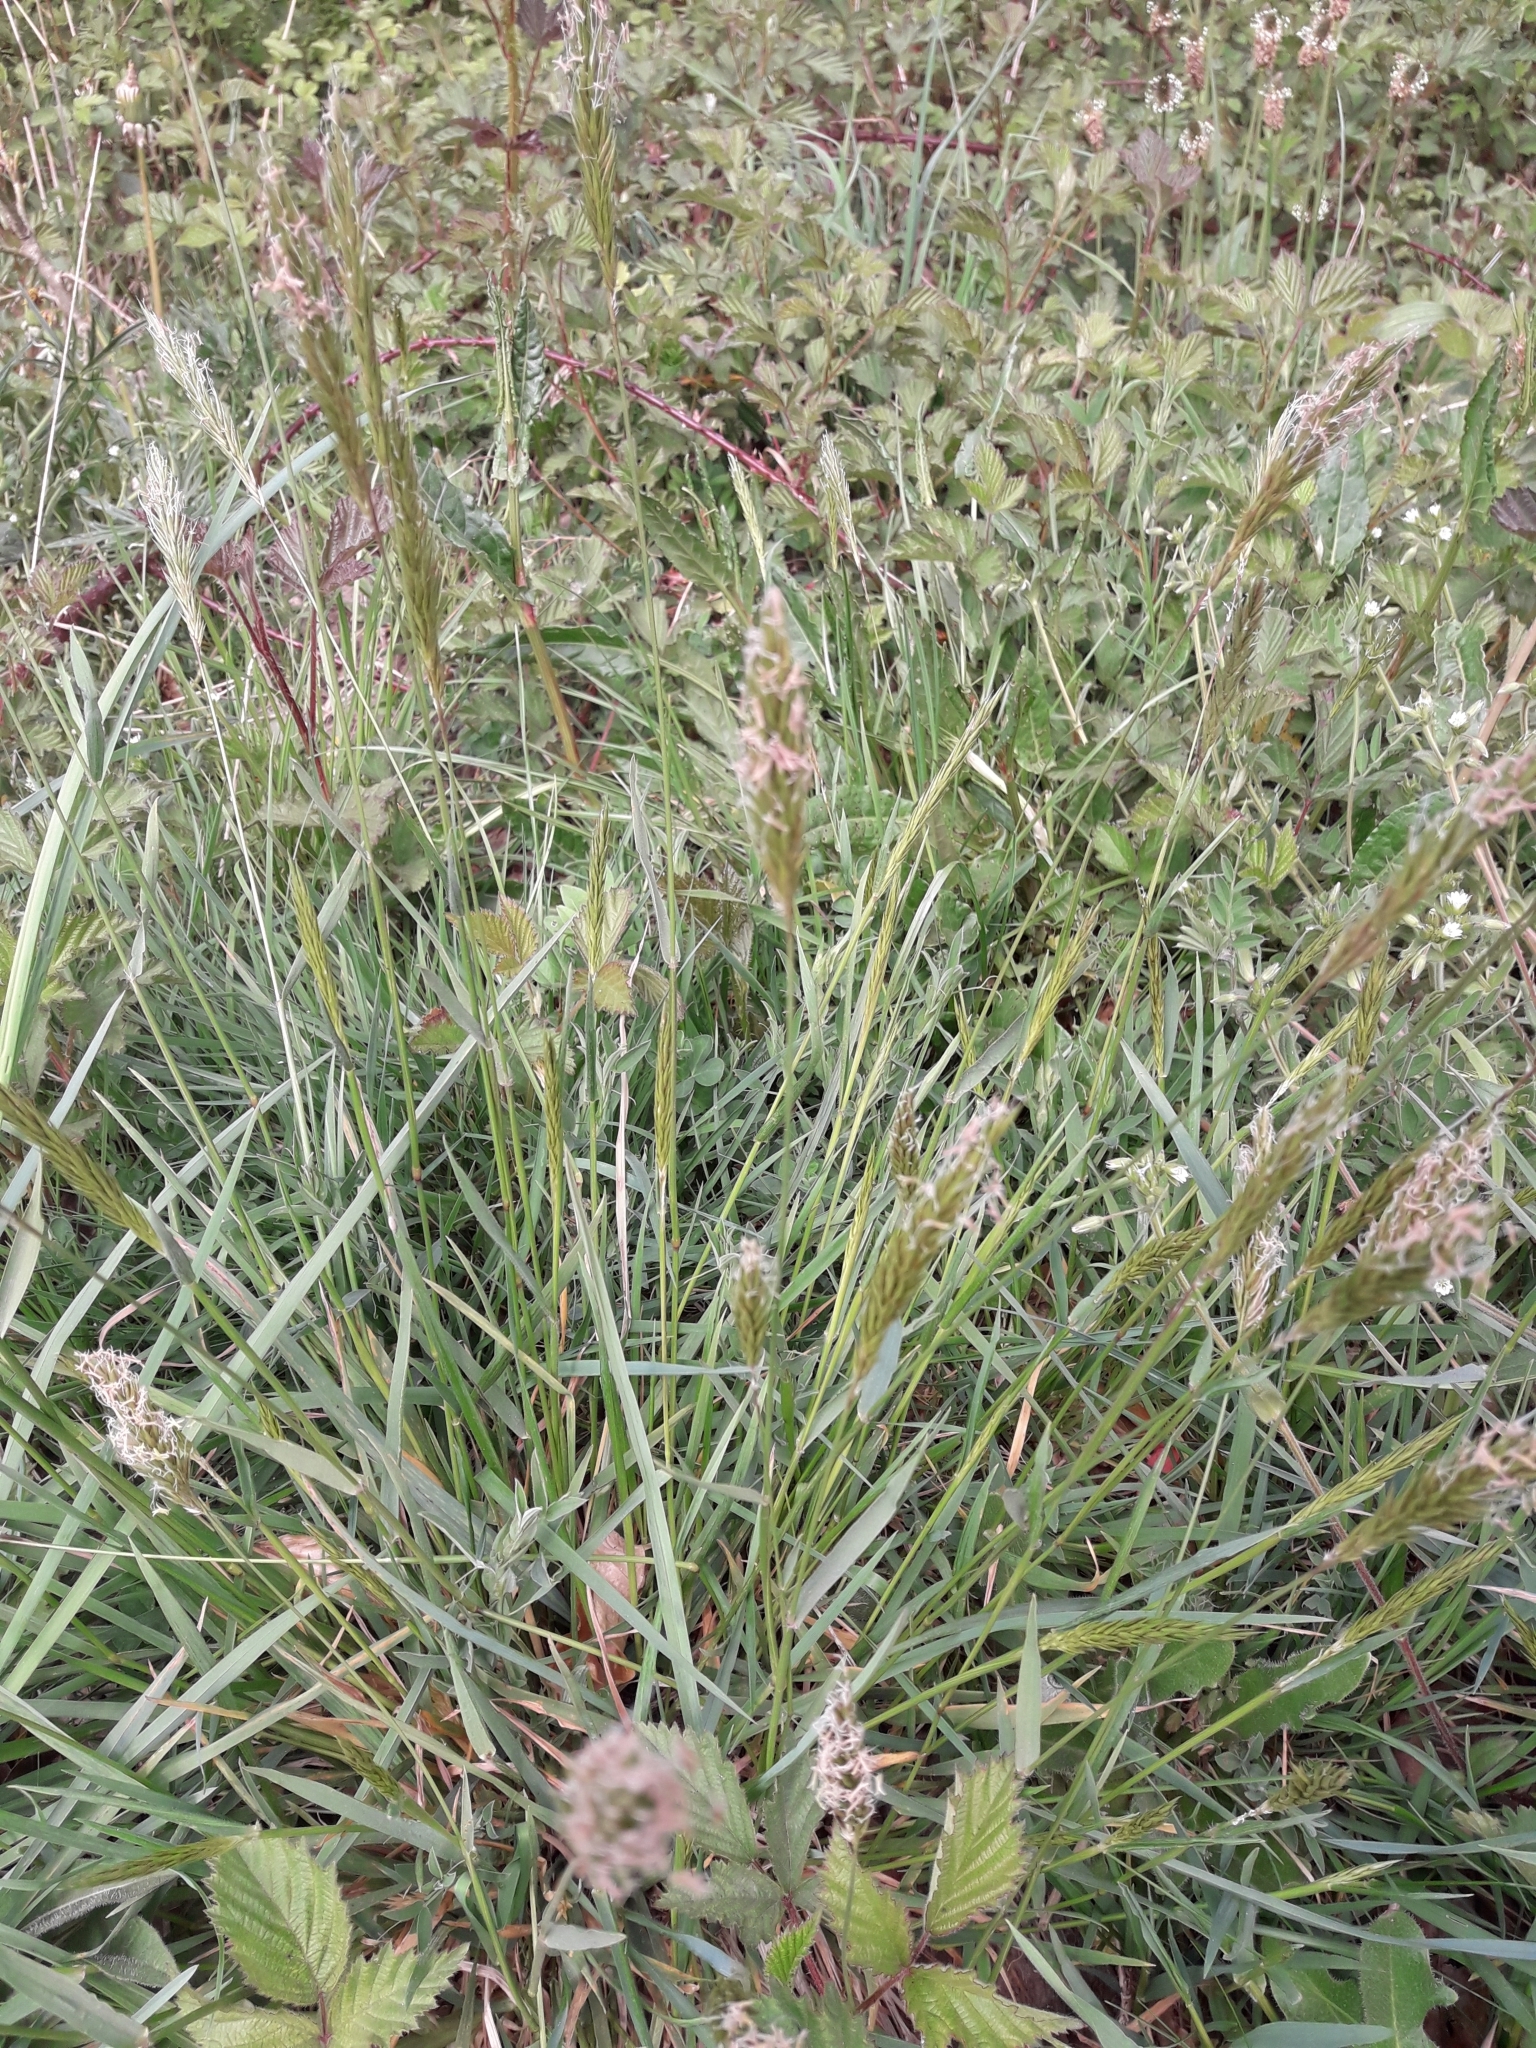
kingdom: Plantae
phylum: Tracheophyta
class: Liliopsida
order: Poales
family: Poaceae
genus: Anthoxanthum
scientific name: Anthoxanthum odoratum
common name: Sweet vernalgrass
